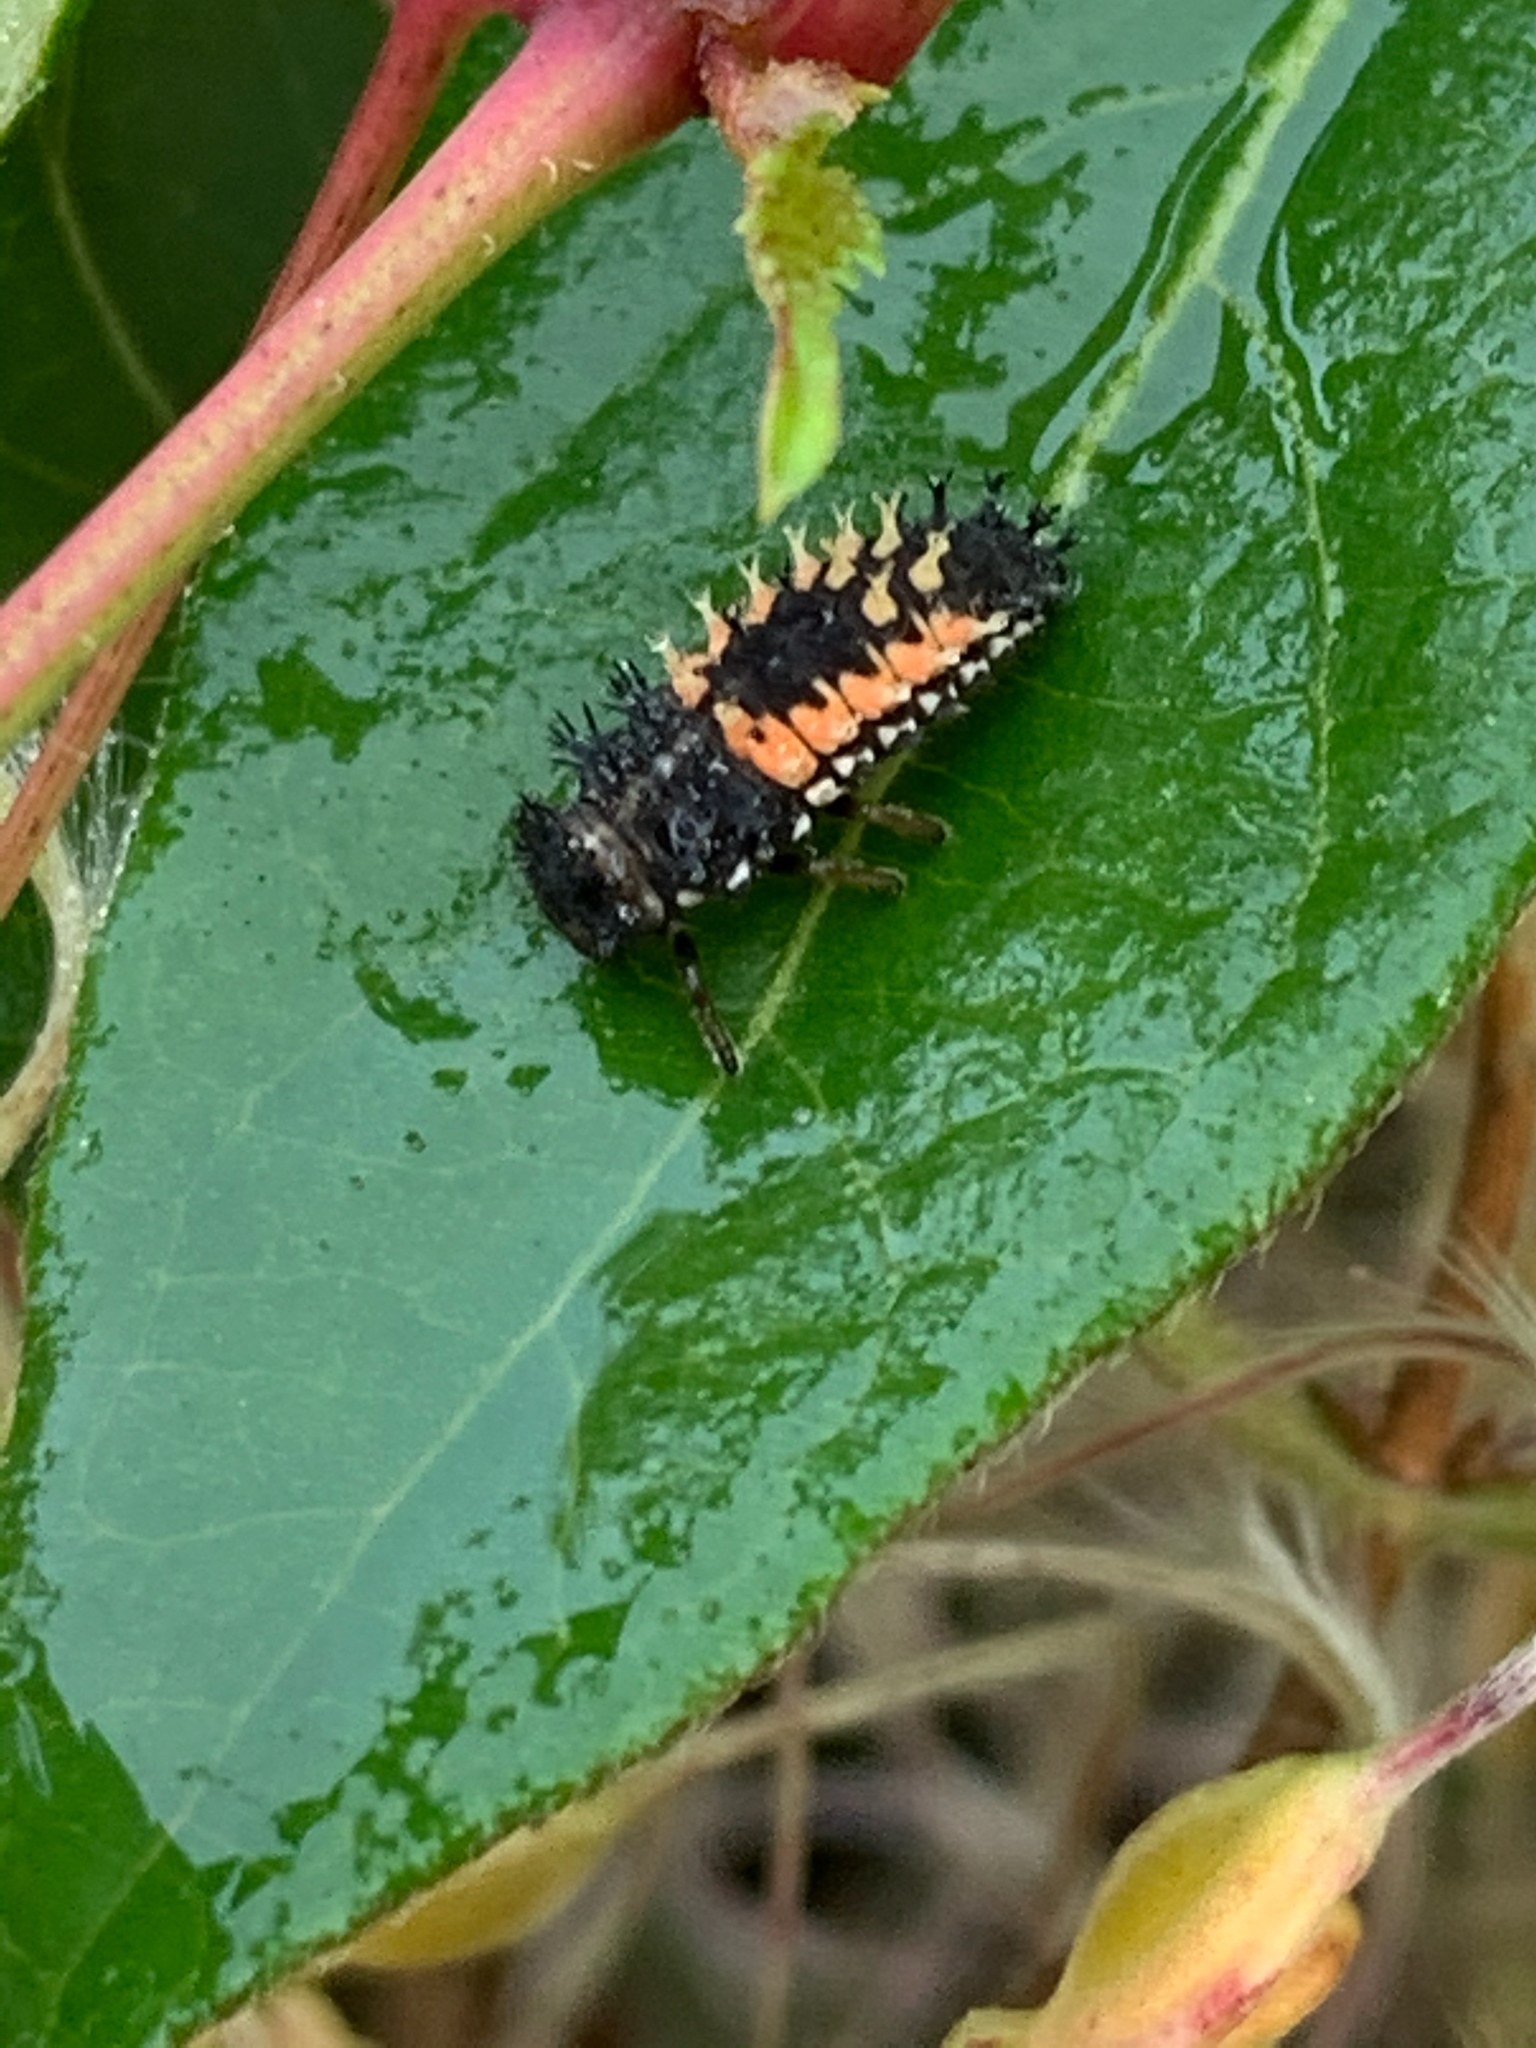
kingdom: Animalia
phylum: Arthropoda
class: Insecta
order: Coleoptera
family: Coccinellidae
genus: Harmonia
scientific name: Harmonia axyridis
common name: Harlequin ladybird
